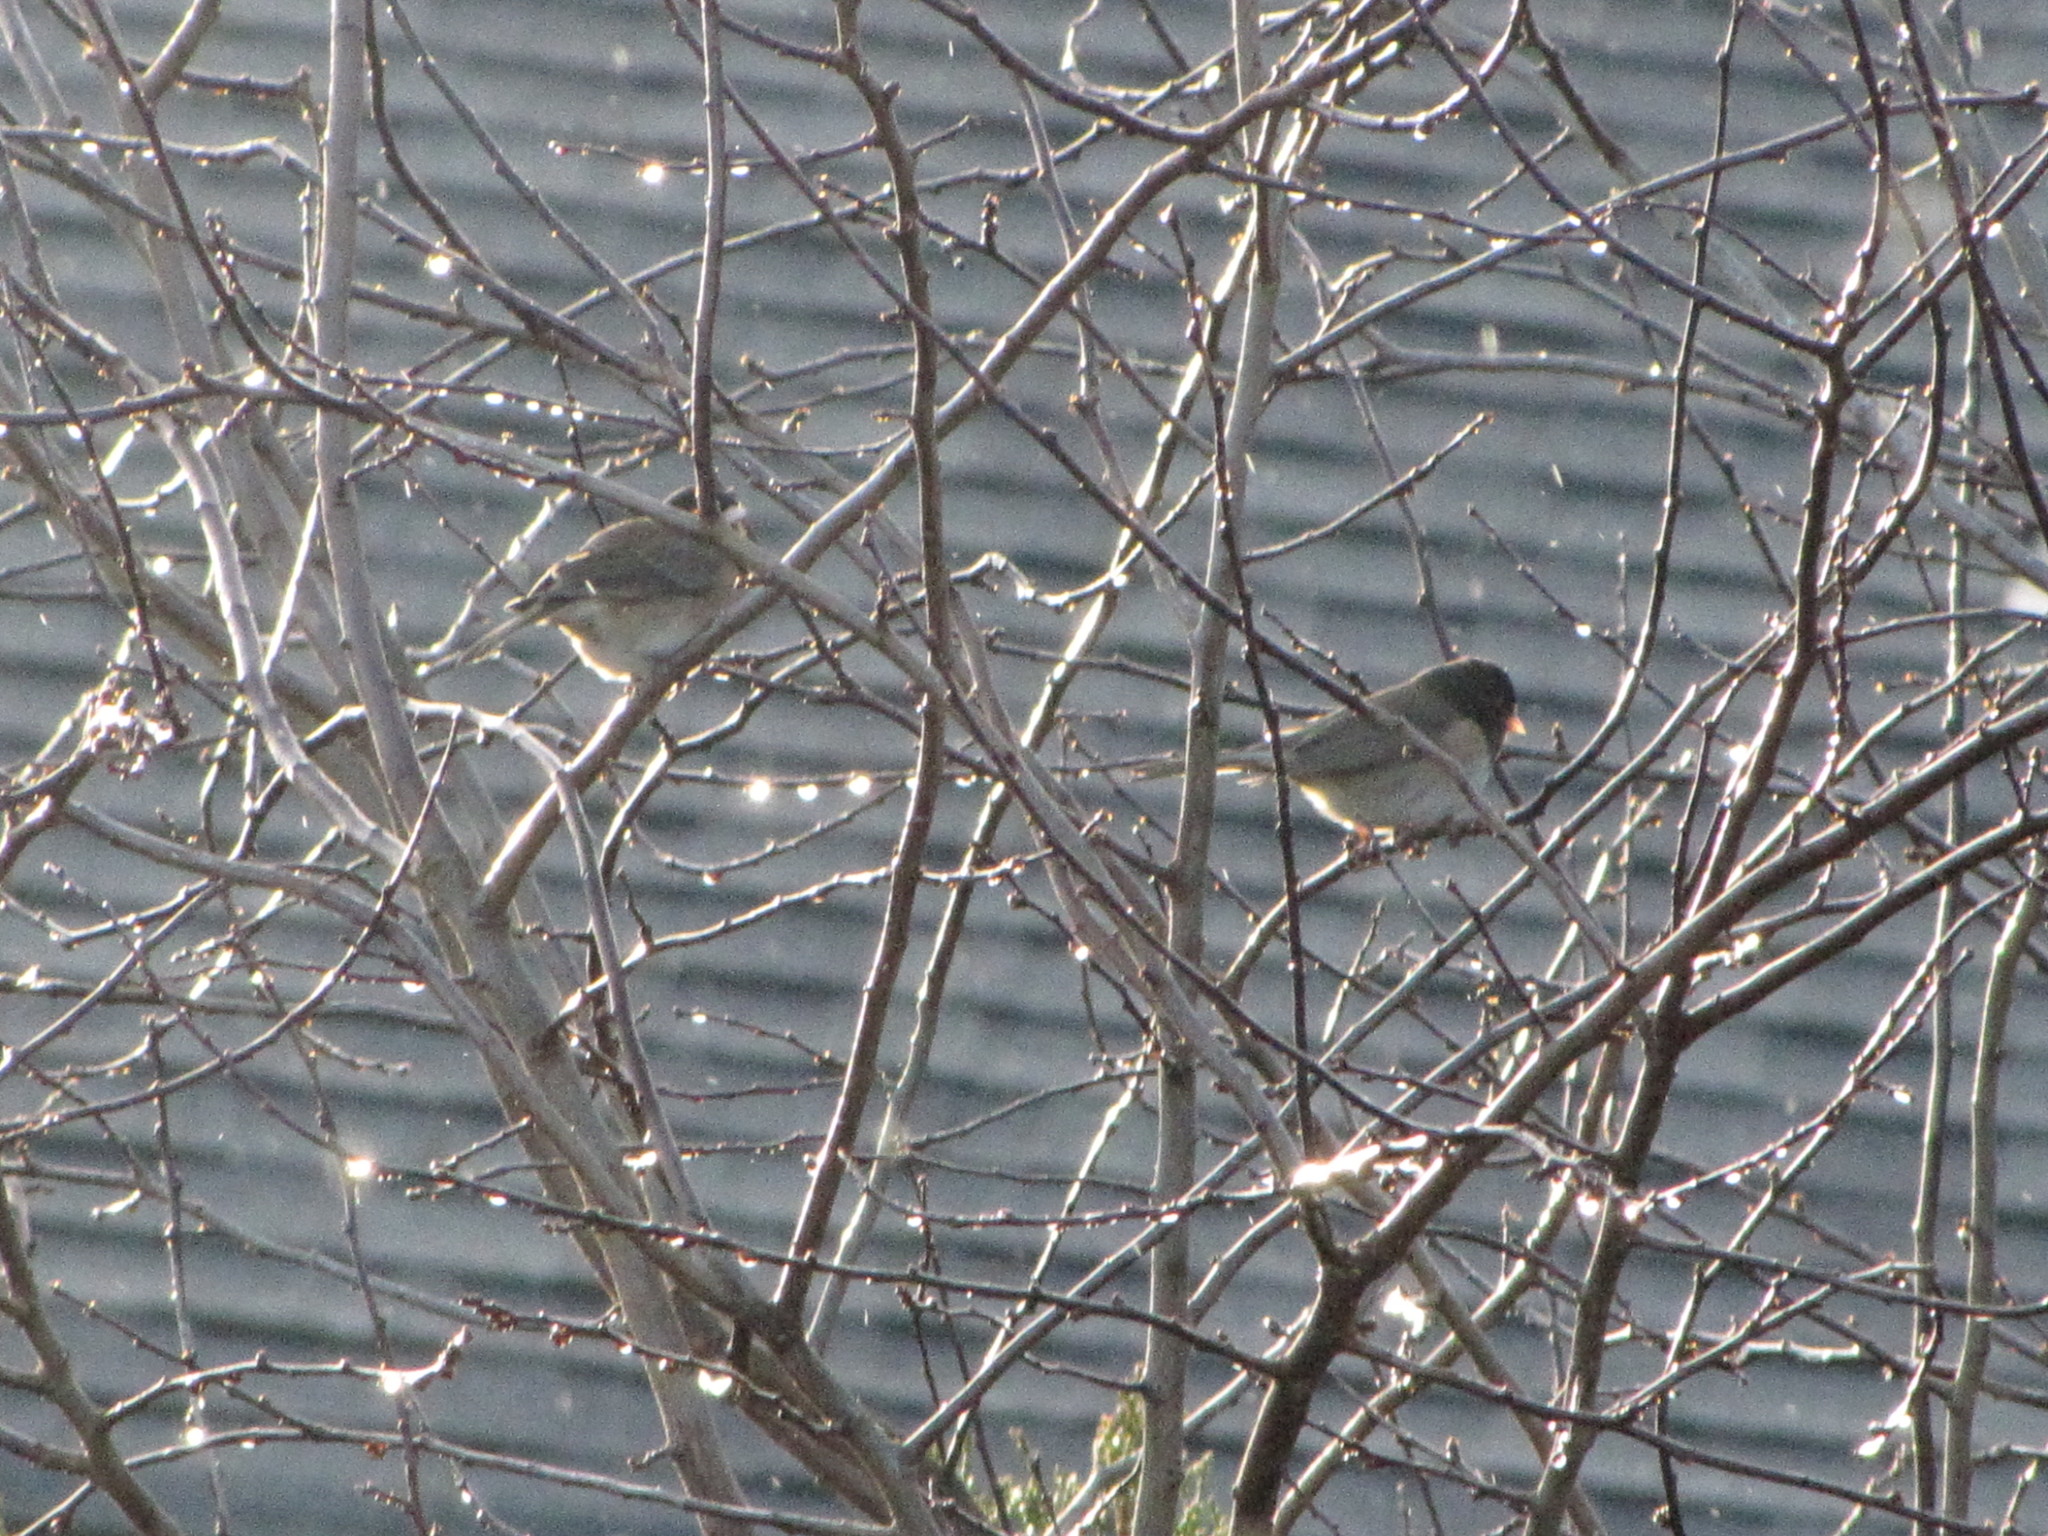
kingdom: Animalia
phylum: Chordata
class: Aves
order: Passeriformes
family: Passerellidae
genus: Junco
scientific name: Junco hyemalis
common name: Dark-eyed junco
